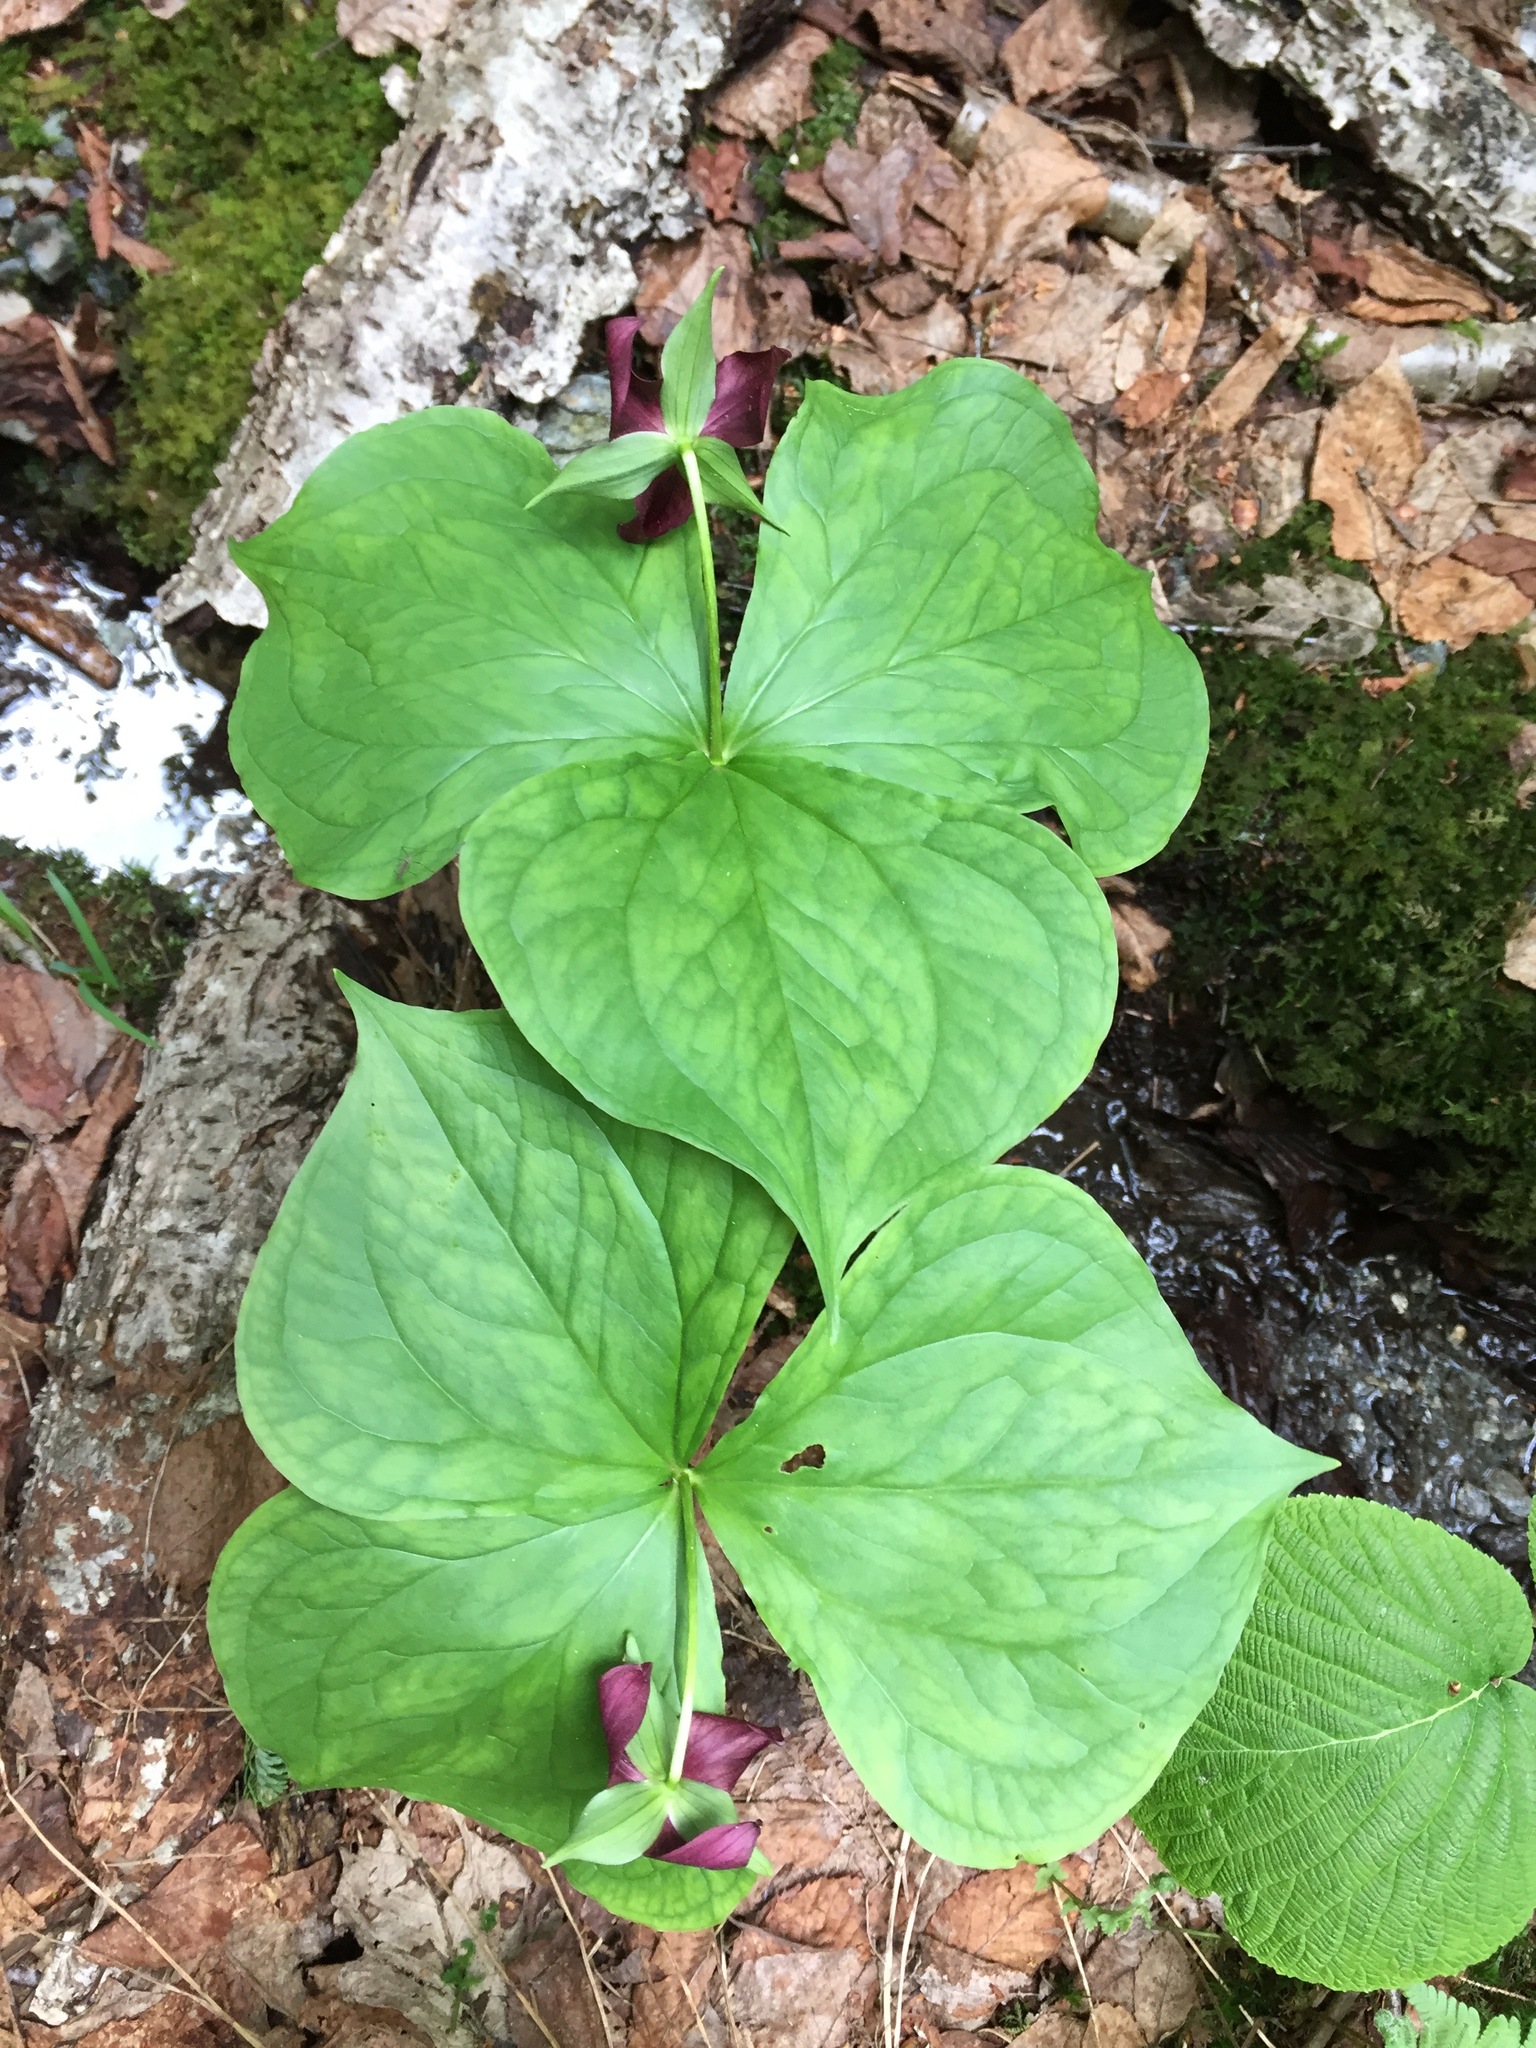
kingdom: Plantae
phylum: Tracheophyta
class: Liliopsida
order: Liliales
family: Melanthiaceae
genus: Trillium
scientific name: Trillium erectum
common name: Purple trillium
